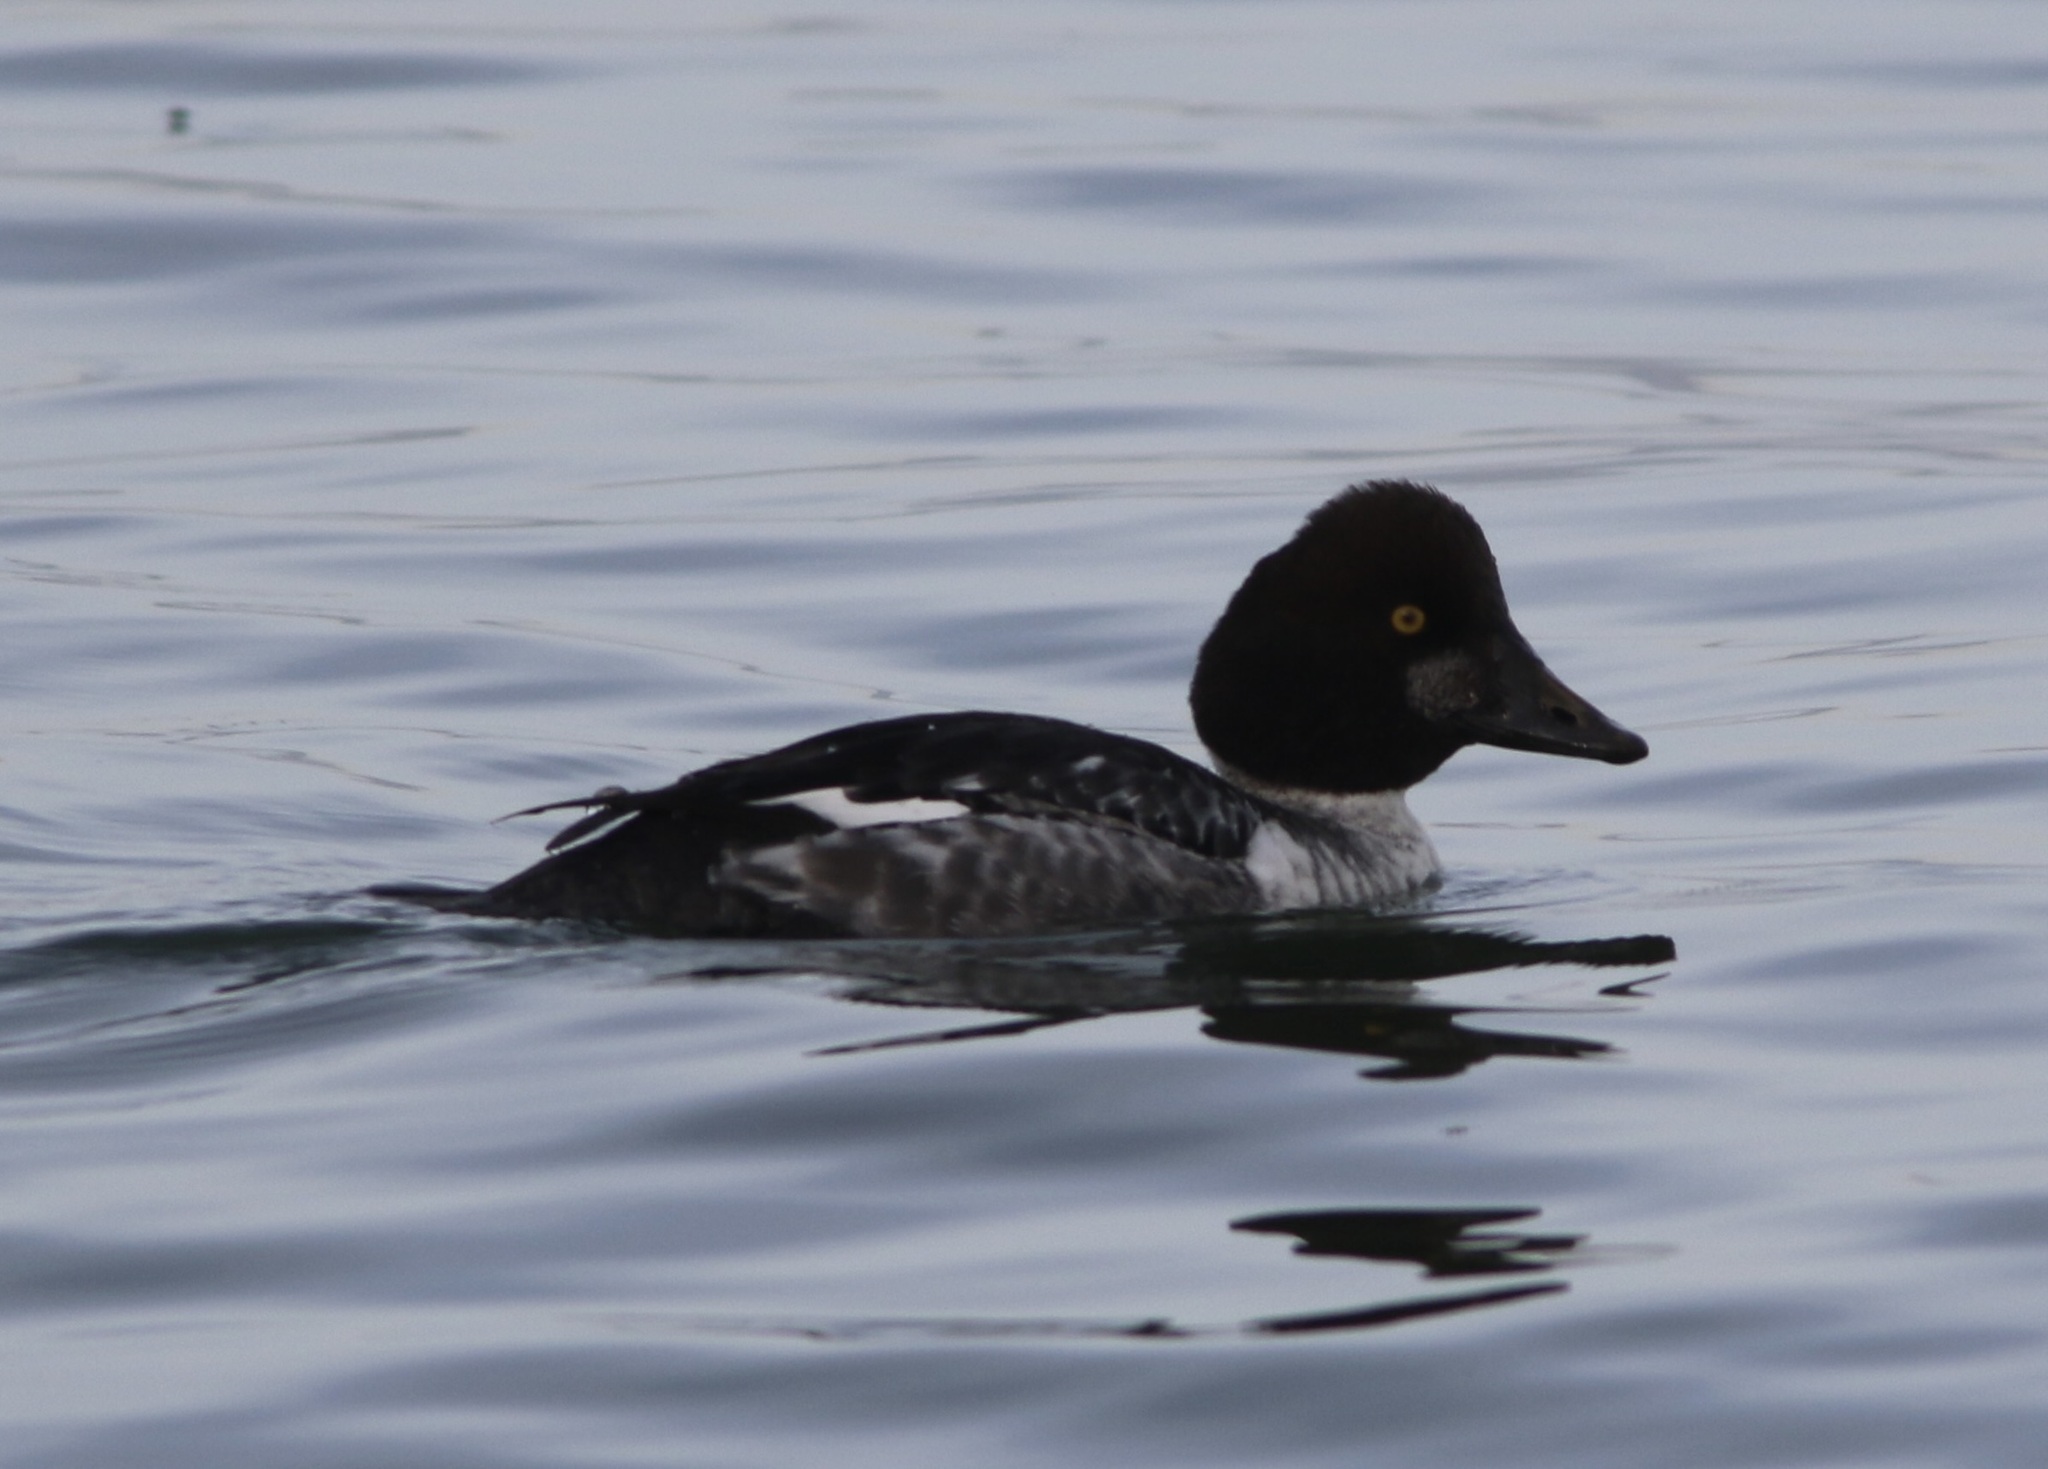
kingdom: Animalia
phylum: Chordata
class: Aves
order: Anseriformes
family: Anatidae
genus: Bucephala
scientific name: Bucephala clangula
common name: Common goldeneye
